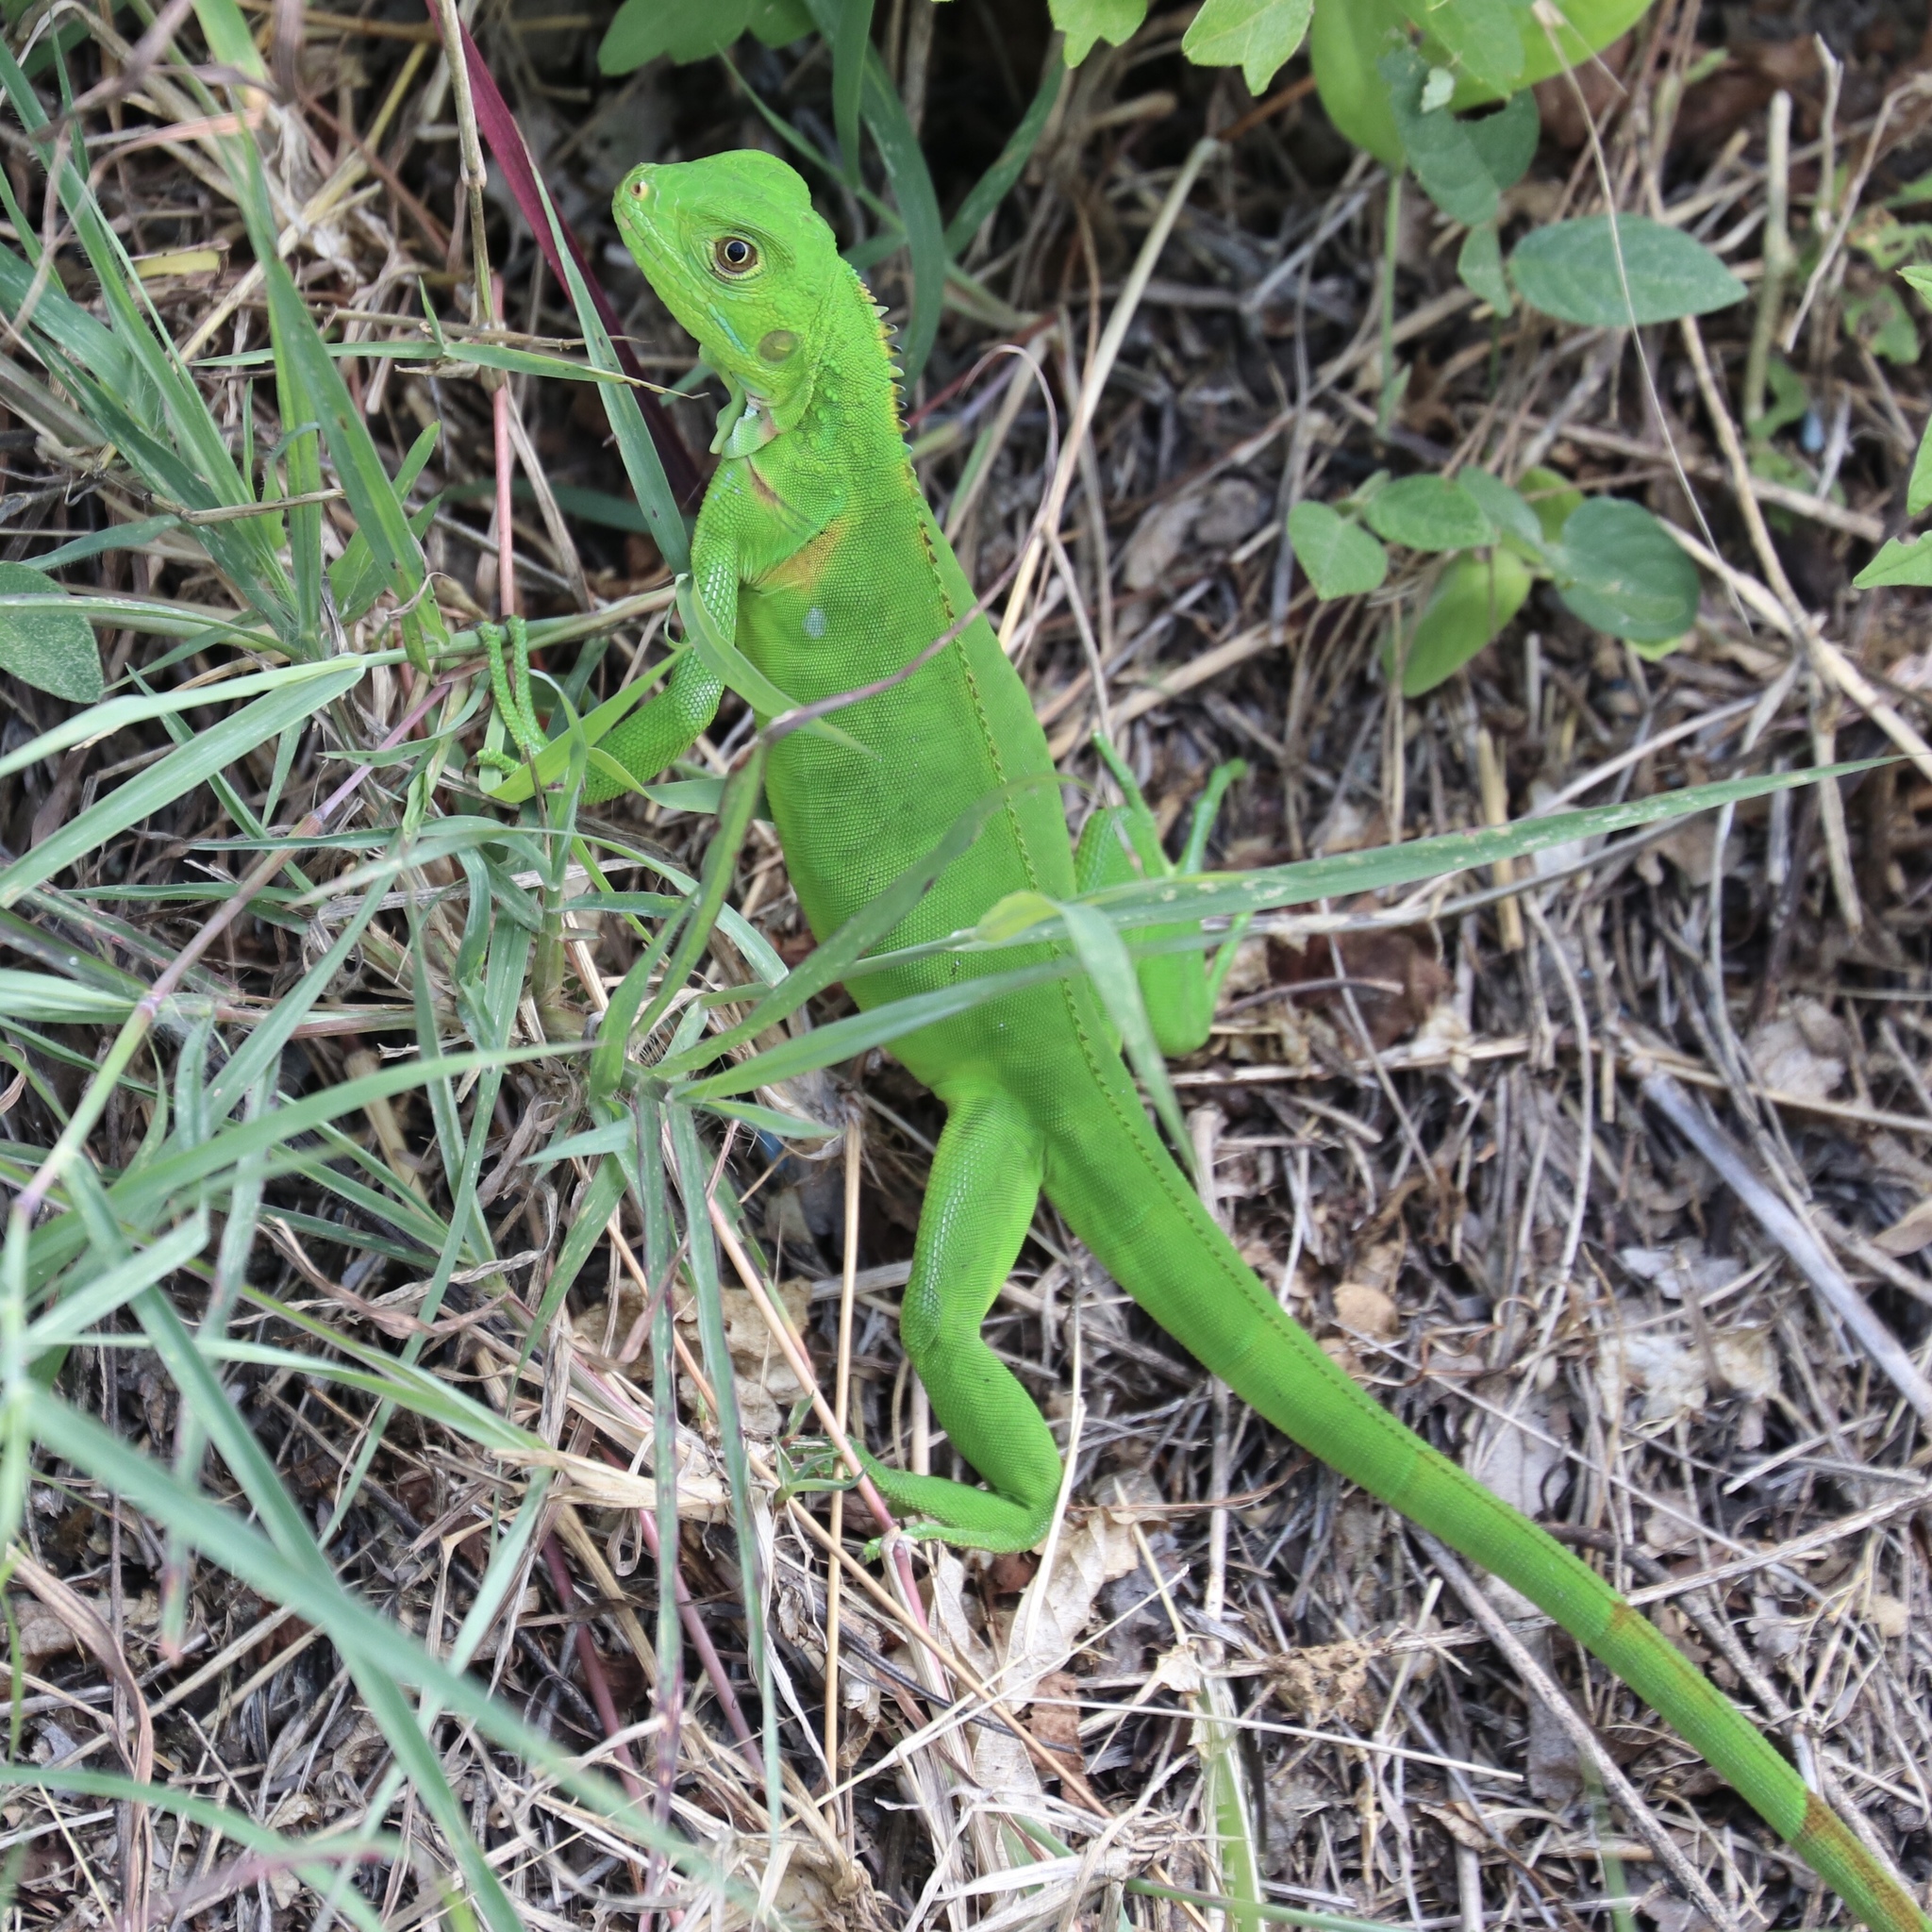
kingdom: Animalia
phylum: Chordata
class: Squamata
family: Iguanidae
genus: Iguana
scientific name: Iguana iguana
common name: Green iguana
